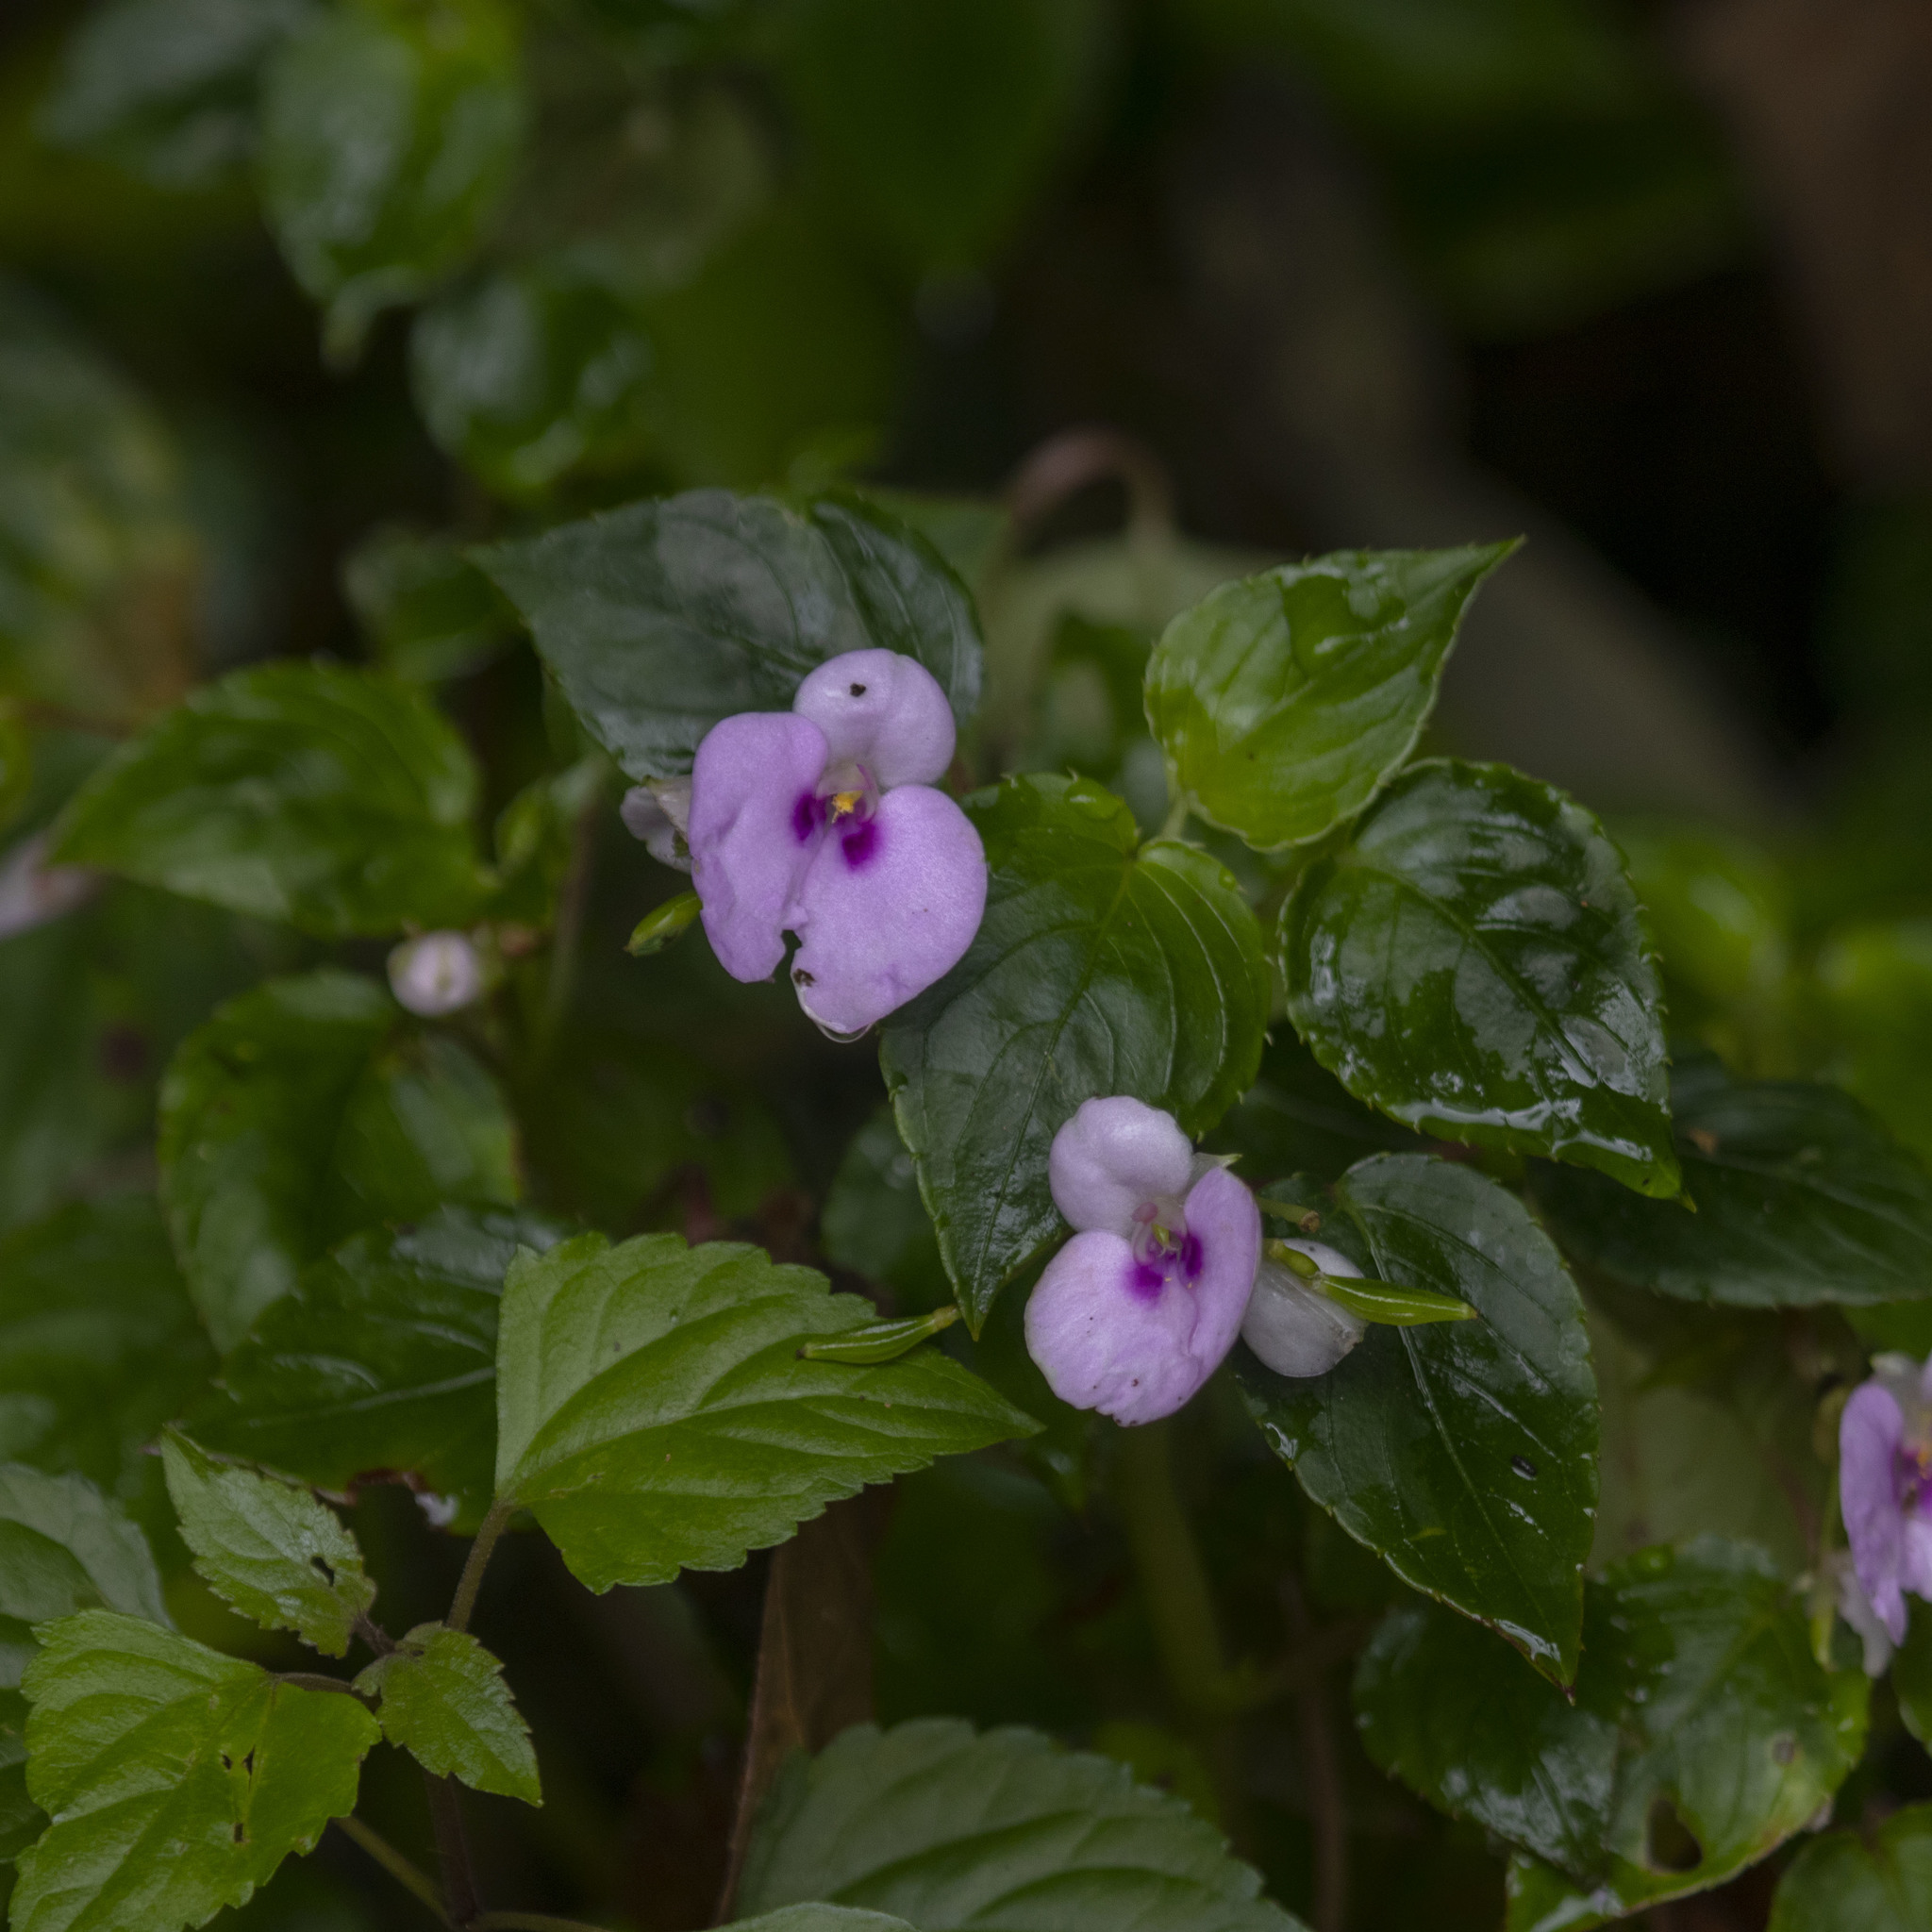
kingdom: Plantae
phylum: Tracheophyta
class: Magnoliopsida
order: Ericales
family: Balsaminaceae
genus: Impatiens
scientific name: Impatiens elegans
